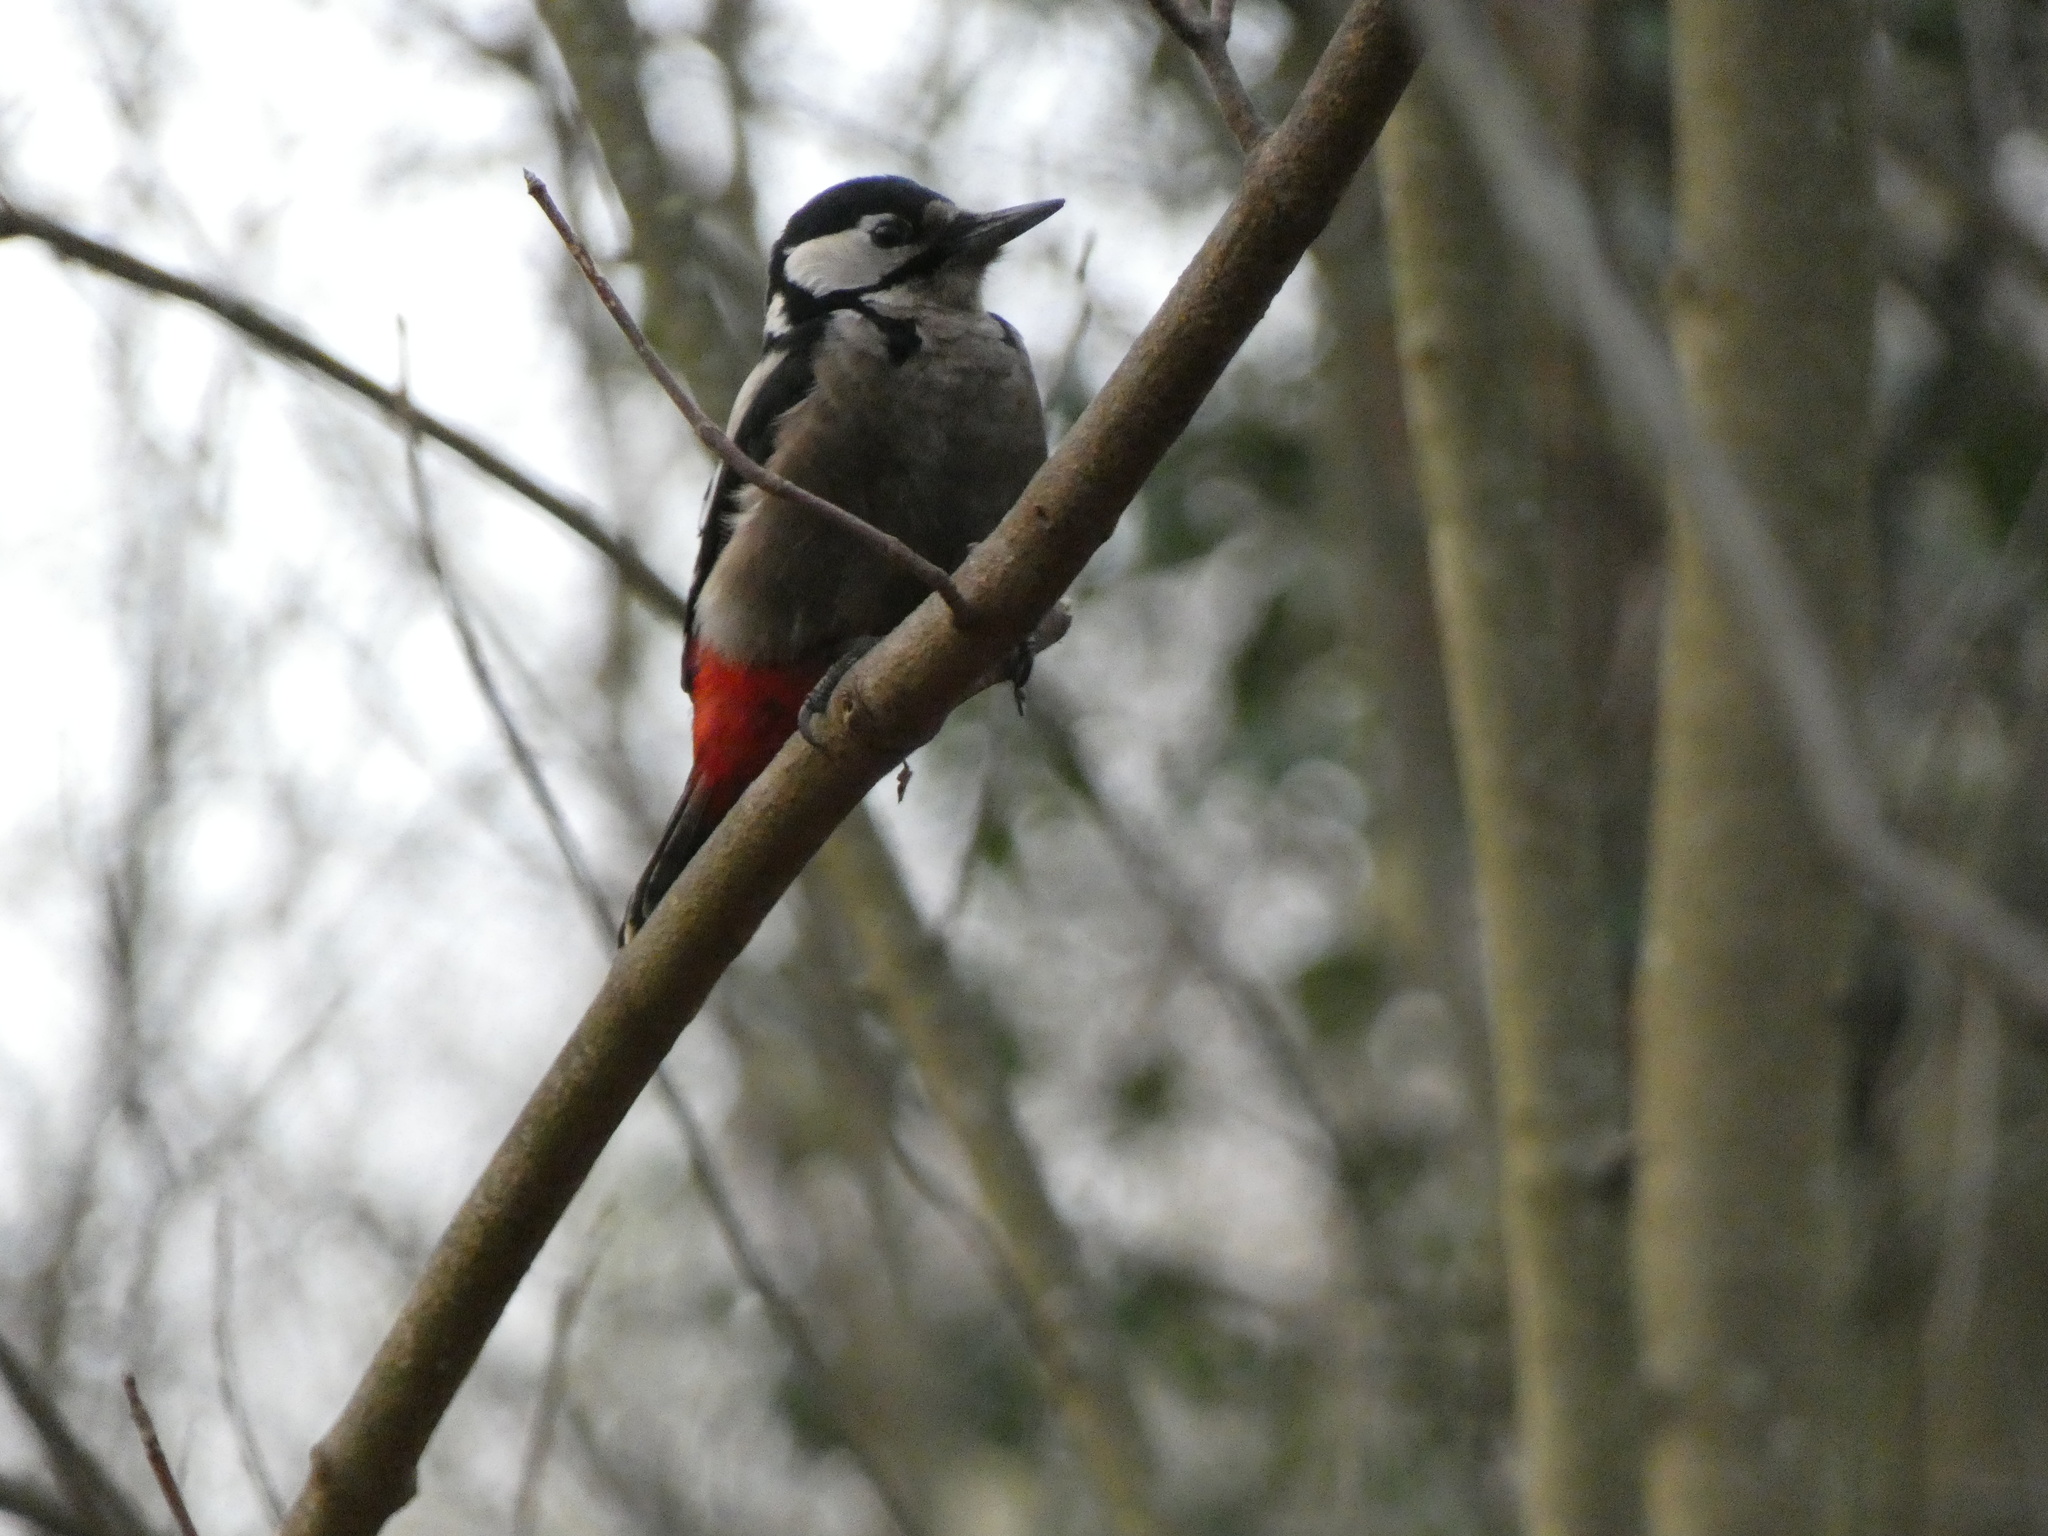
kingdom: Animalia
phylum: Chordata
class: Aves
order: Piciformes
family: Picidae
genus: Dendrocopos
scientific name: Dendrocopos major
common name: Great spotted woodpecker
